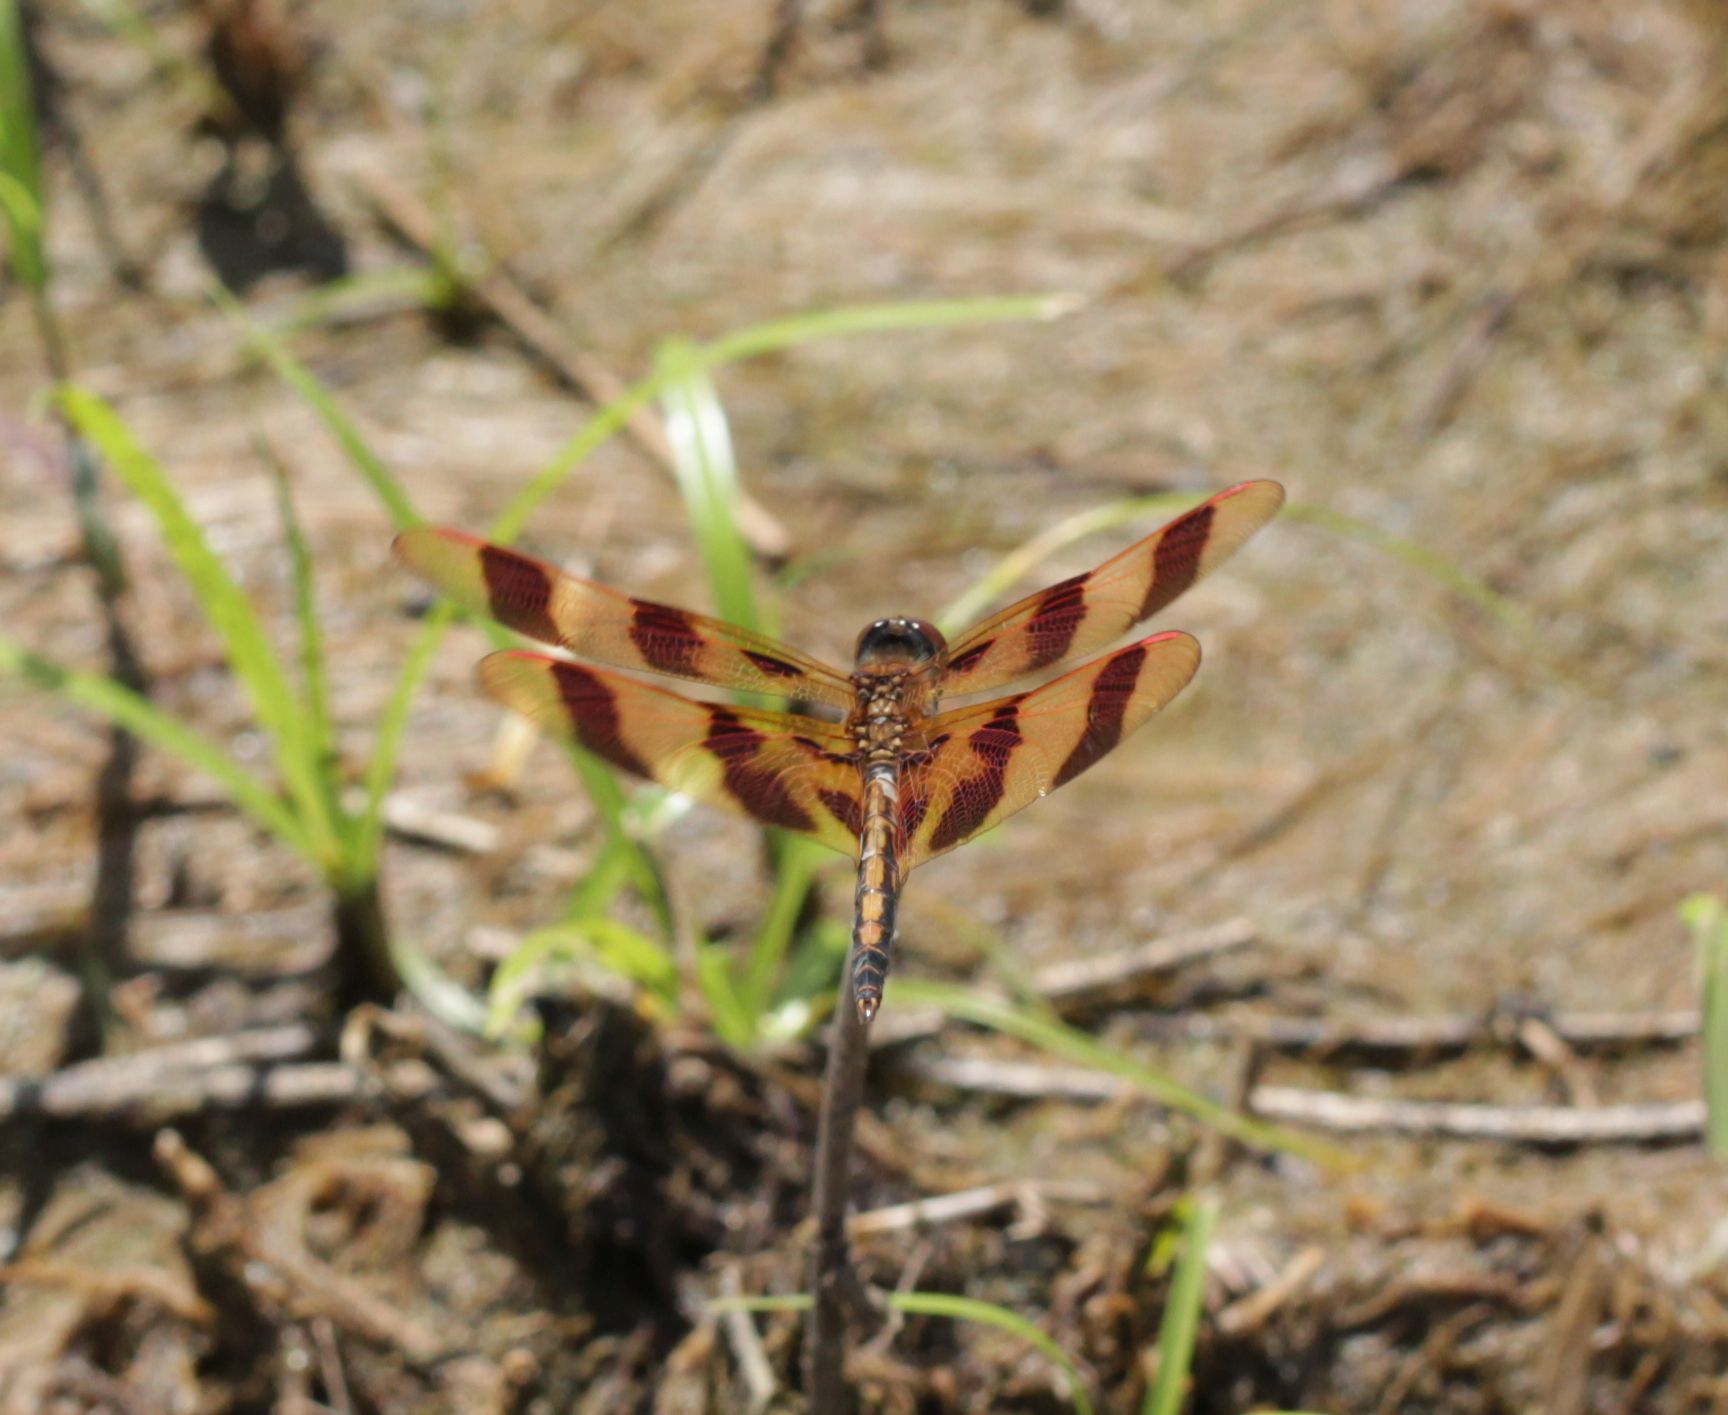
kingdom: Animalia
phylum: Arthropoda
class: Insecta
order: Odonata
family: Libellulidae
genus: Celithemis
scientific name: Celithemis eponina
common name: Halloween pennant
